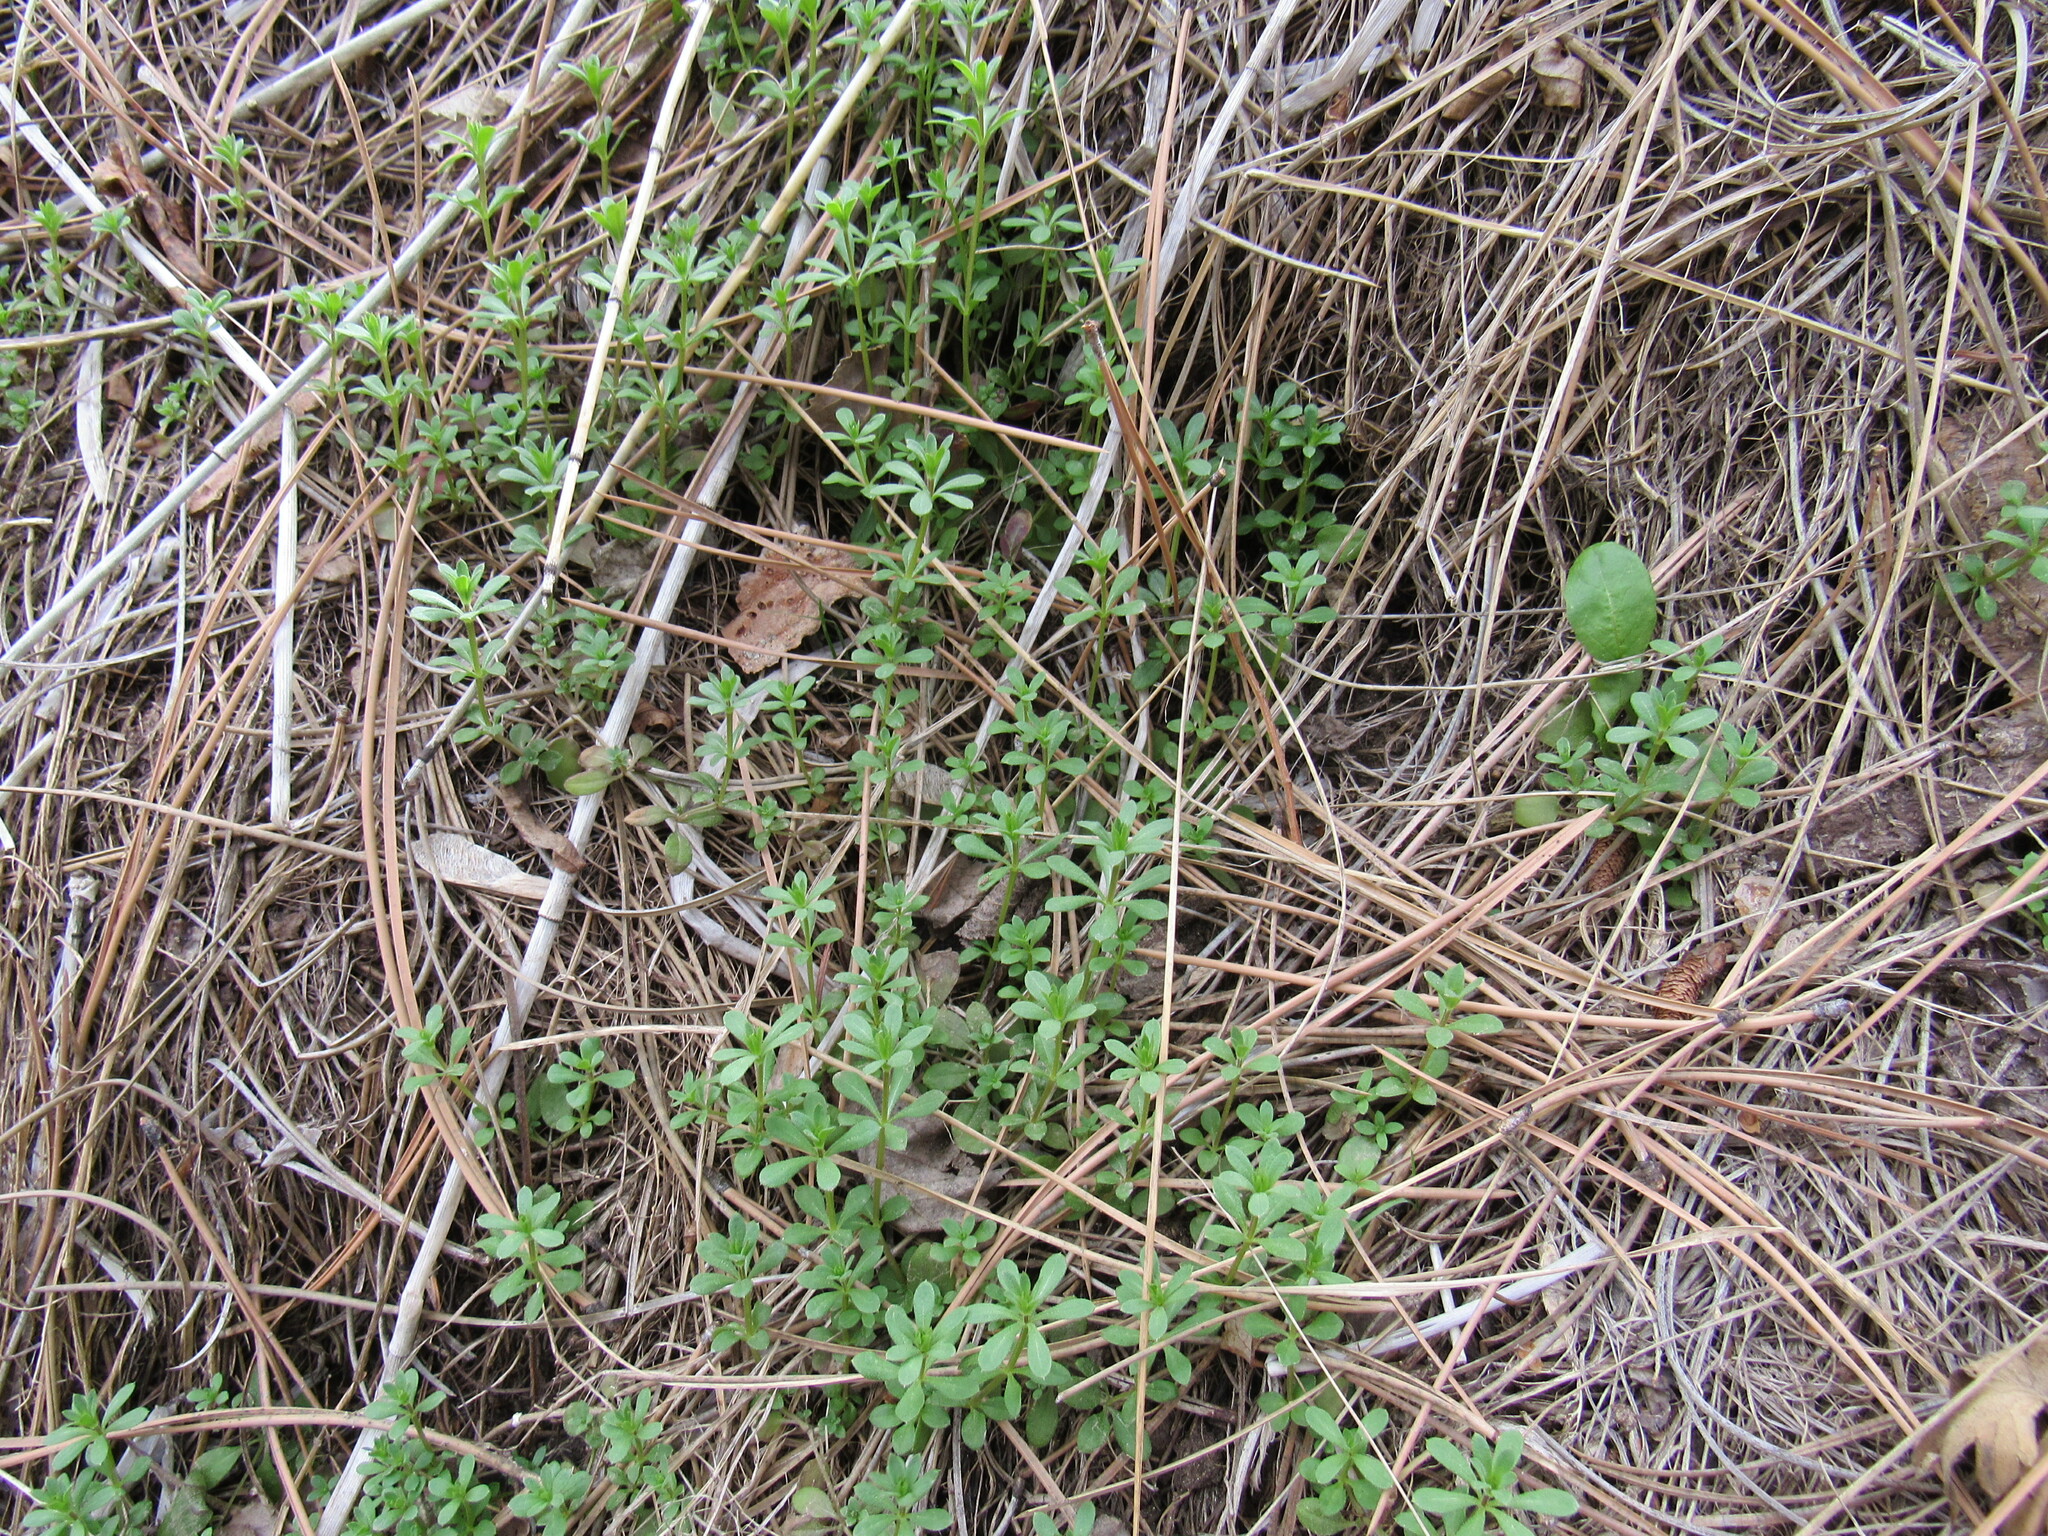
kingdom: Plantae
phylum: Tracheophyta
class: Magnoliopsida
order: Gentianales
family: Rubiaceae
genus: Galium
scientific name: Galium aparine
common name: Cleavers
